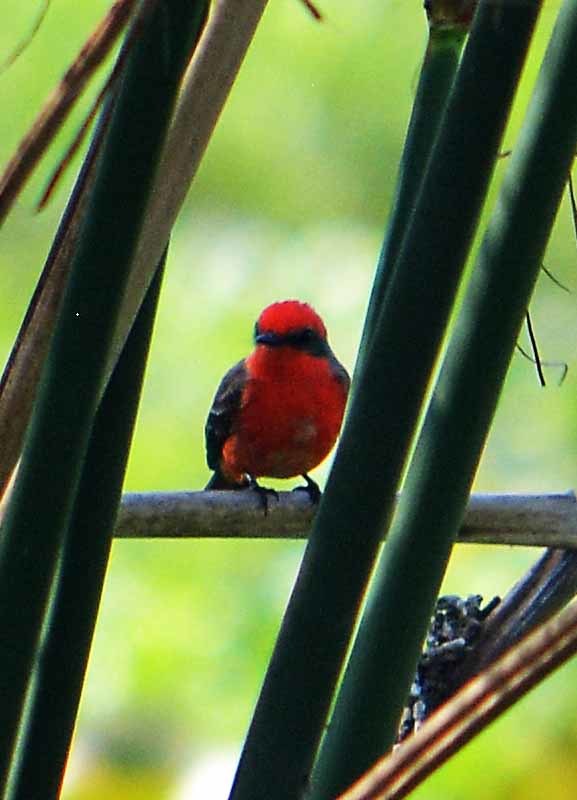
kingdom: Animalia
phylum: Chordata
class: Aves
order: Passeriformes
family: Tyrannidae
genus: Pyrocephalus
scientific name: Pyrocephalus rubinus
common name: Vermilion flycatcher
